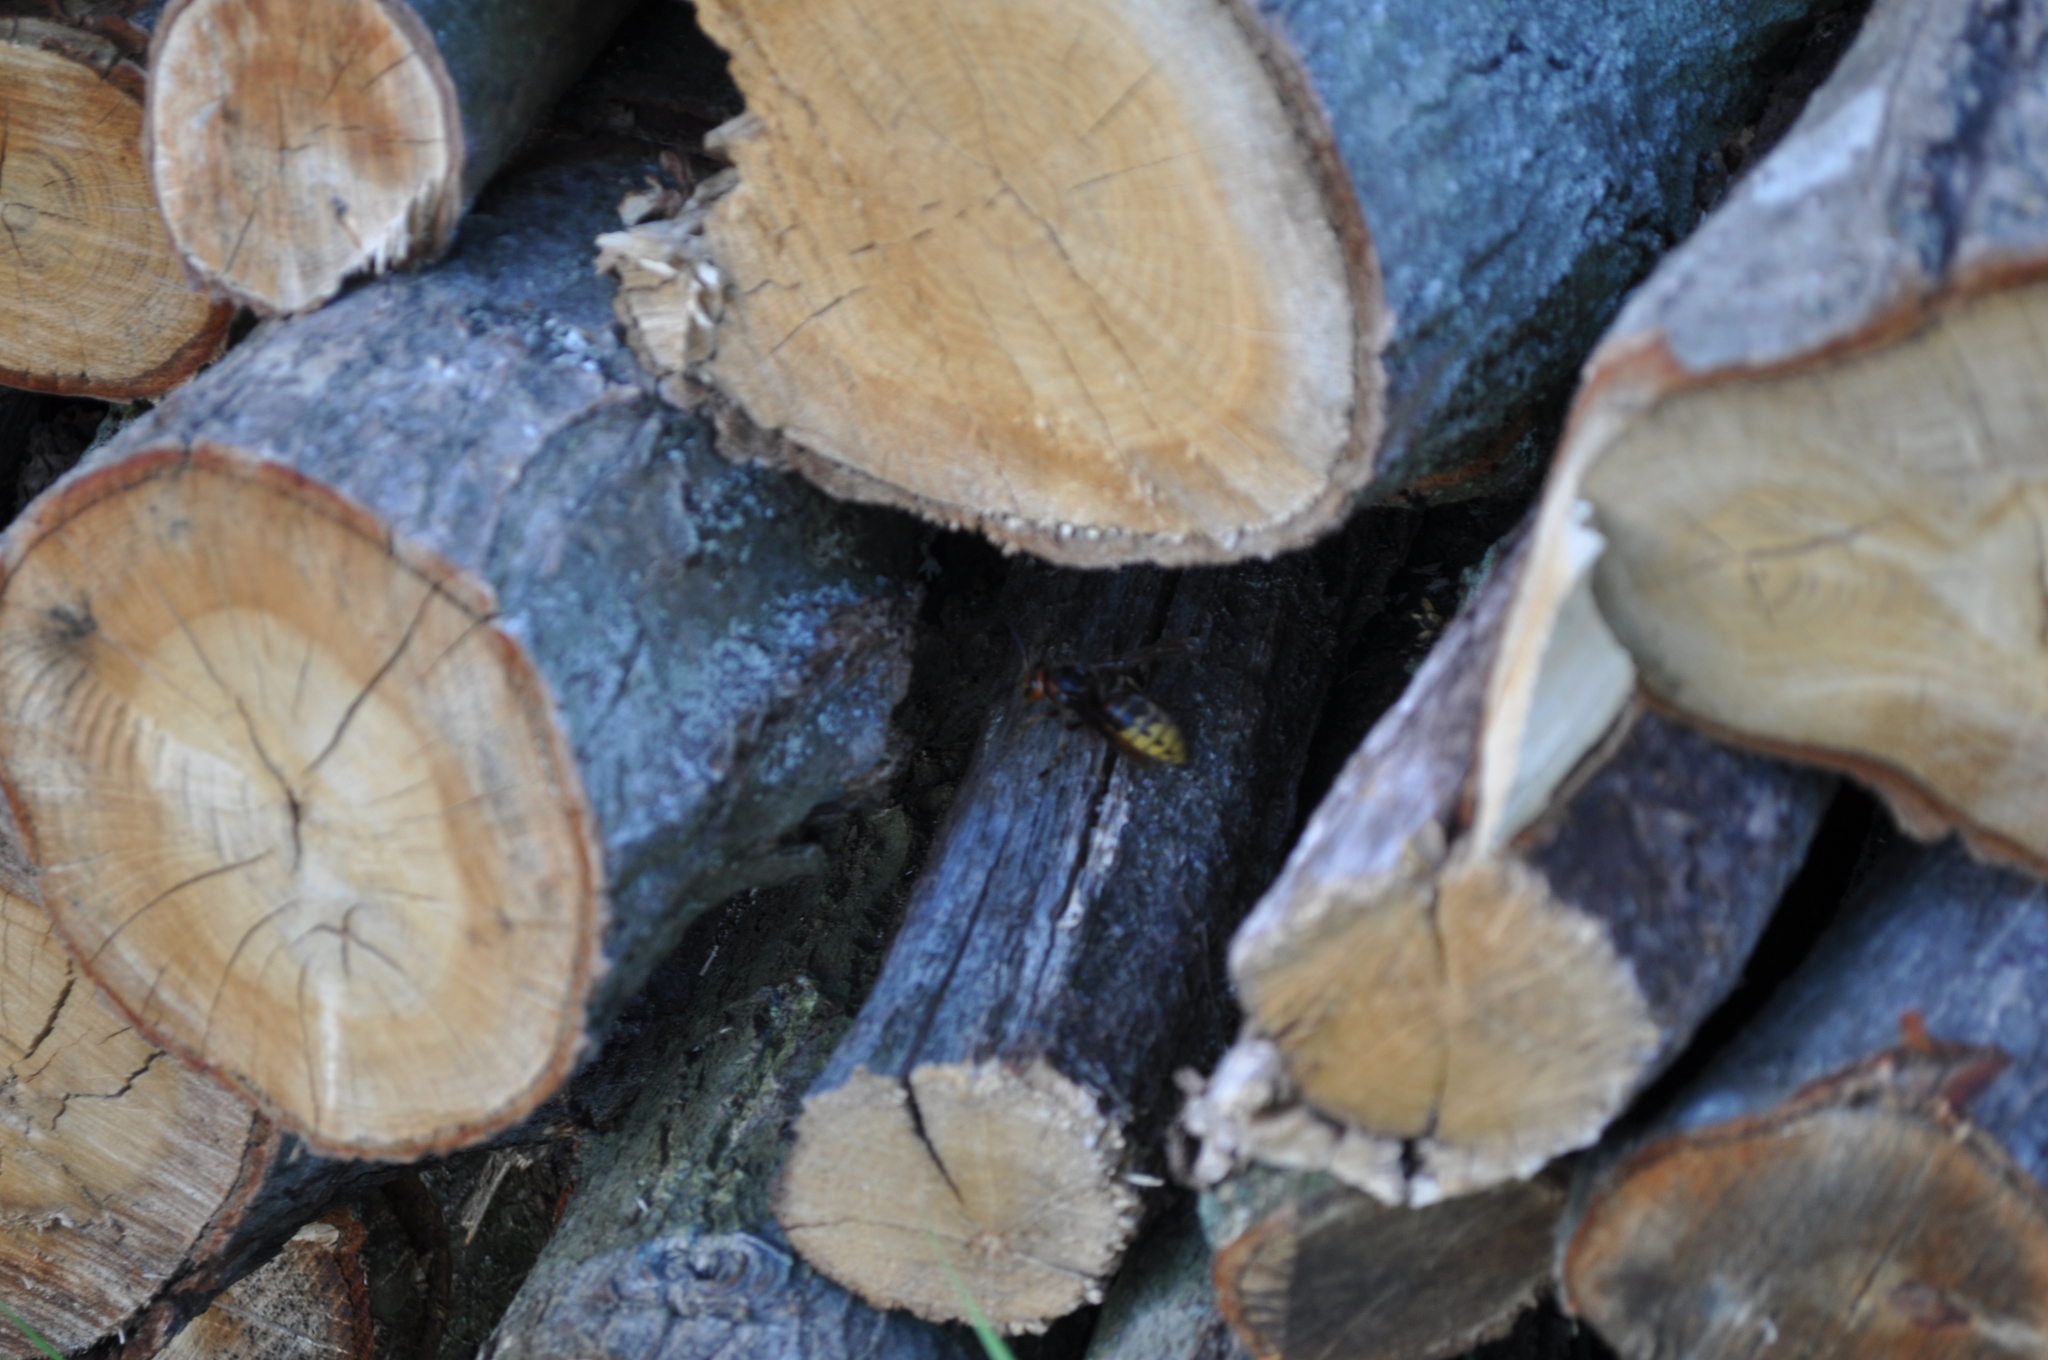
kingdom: Animalia
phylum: Arthropoda
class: Insecta
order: Hymenoptera
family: Vespidae
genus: Vespa
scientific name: Vespa crabro
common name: Hornet
